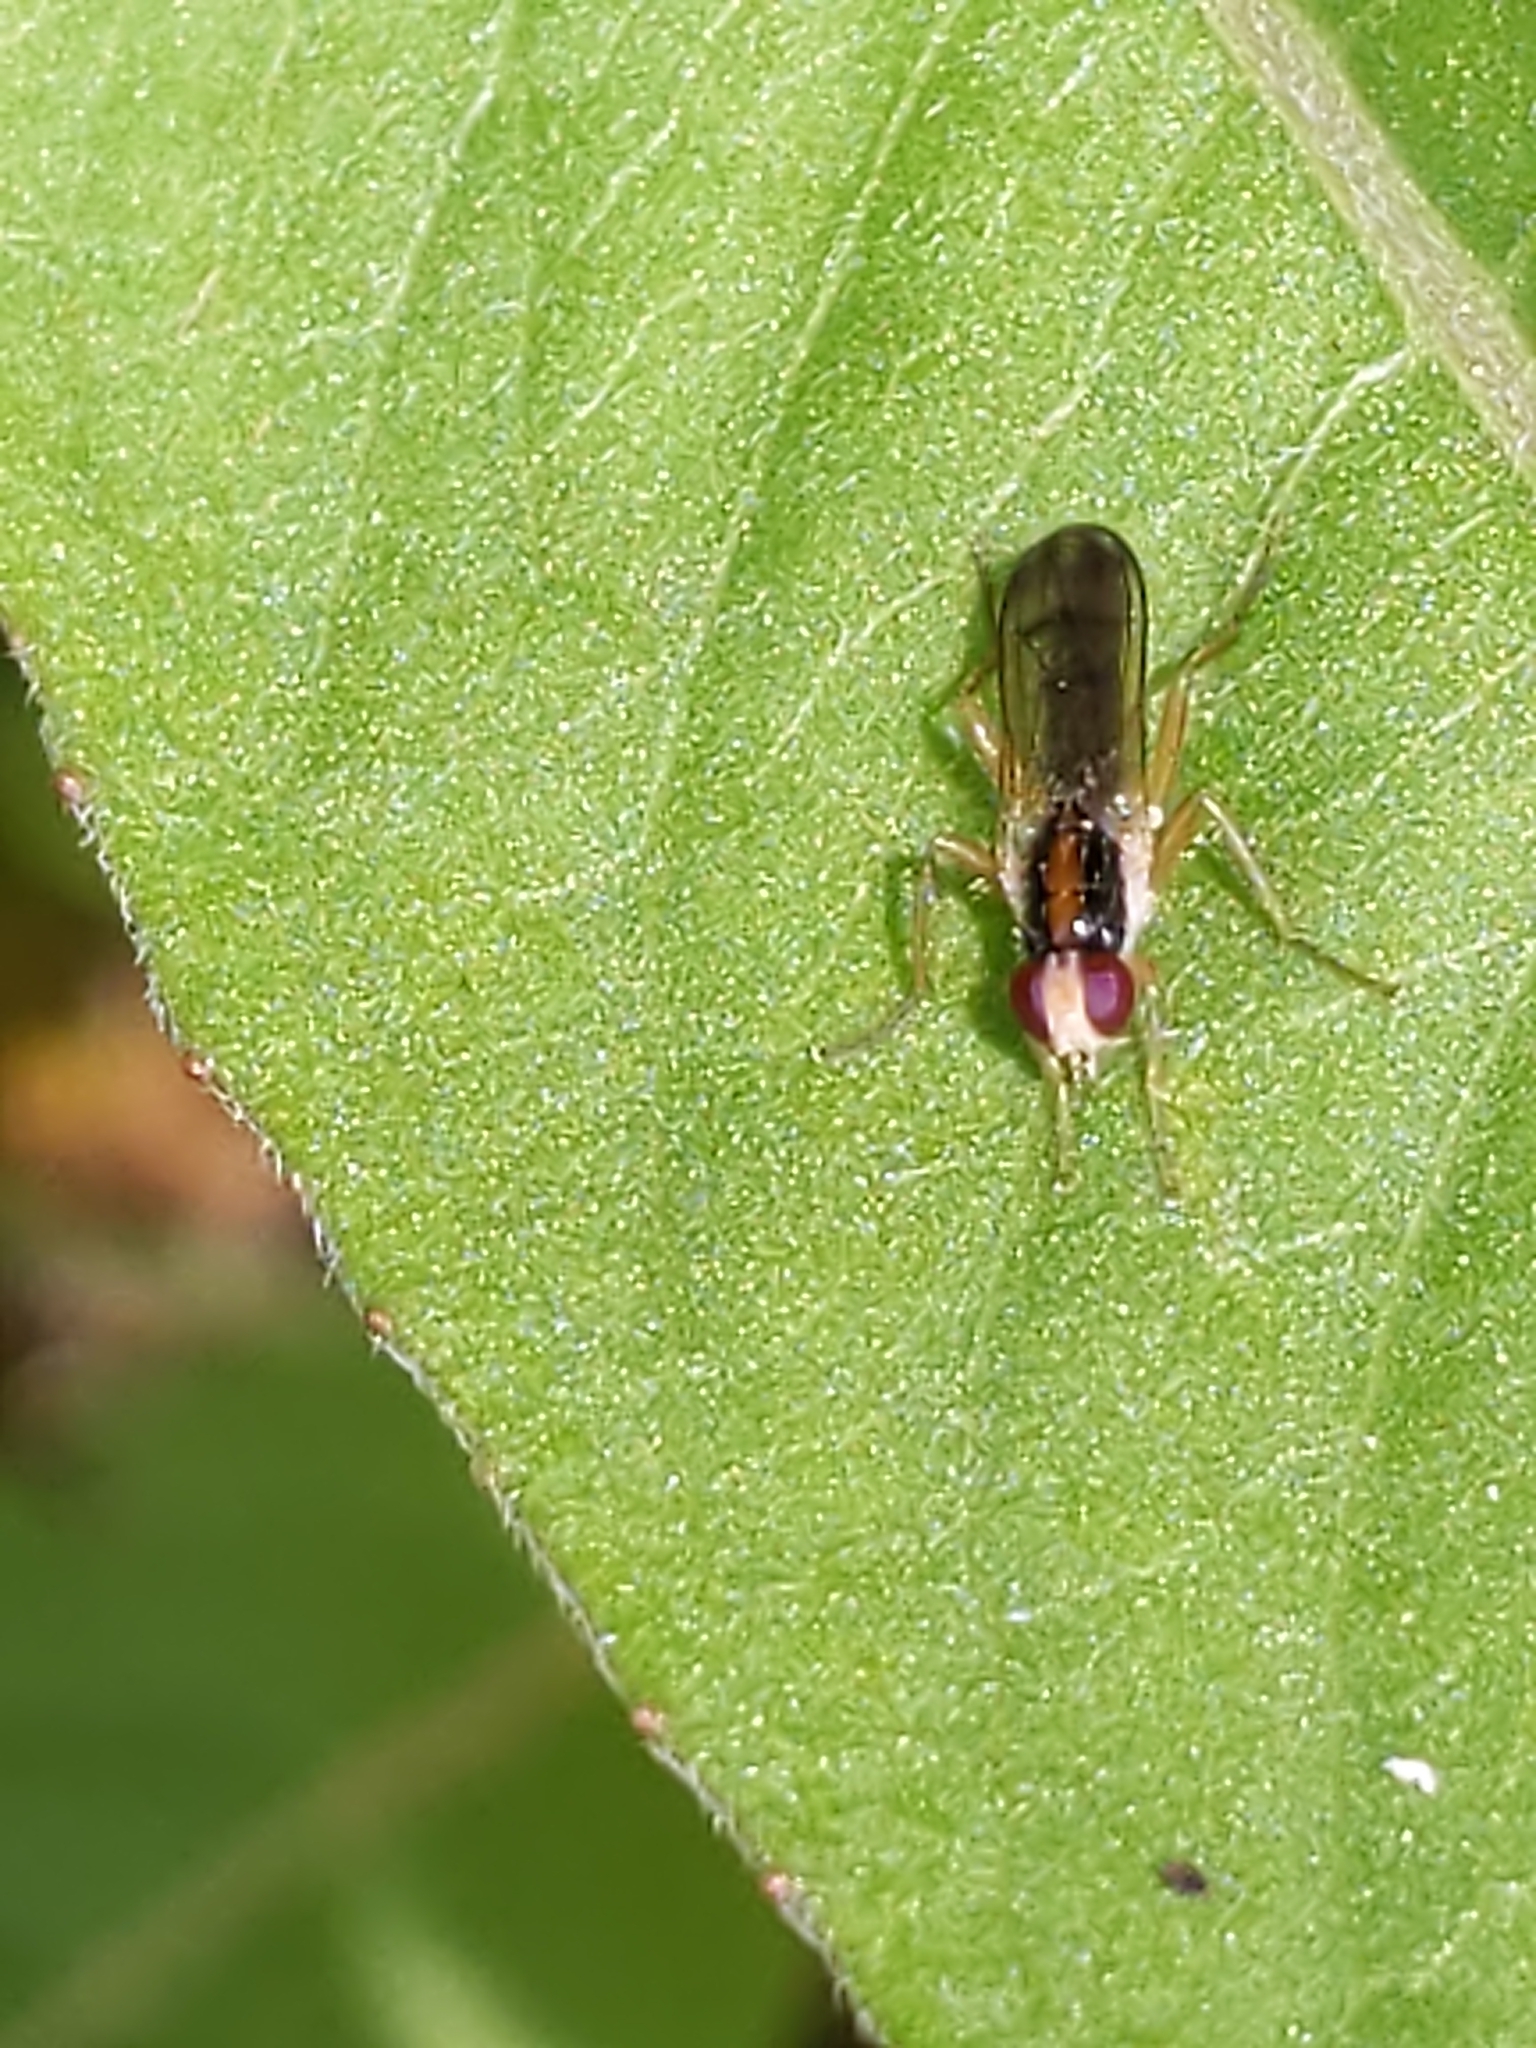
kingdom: Animalia
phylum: Arthropoda
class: Insecta
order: Diptera
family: Scathophagidae
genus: Cordilura
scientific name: Cordilura
